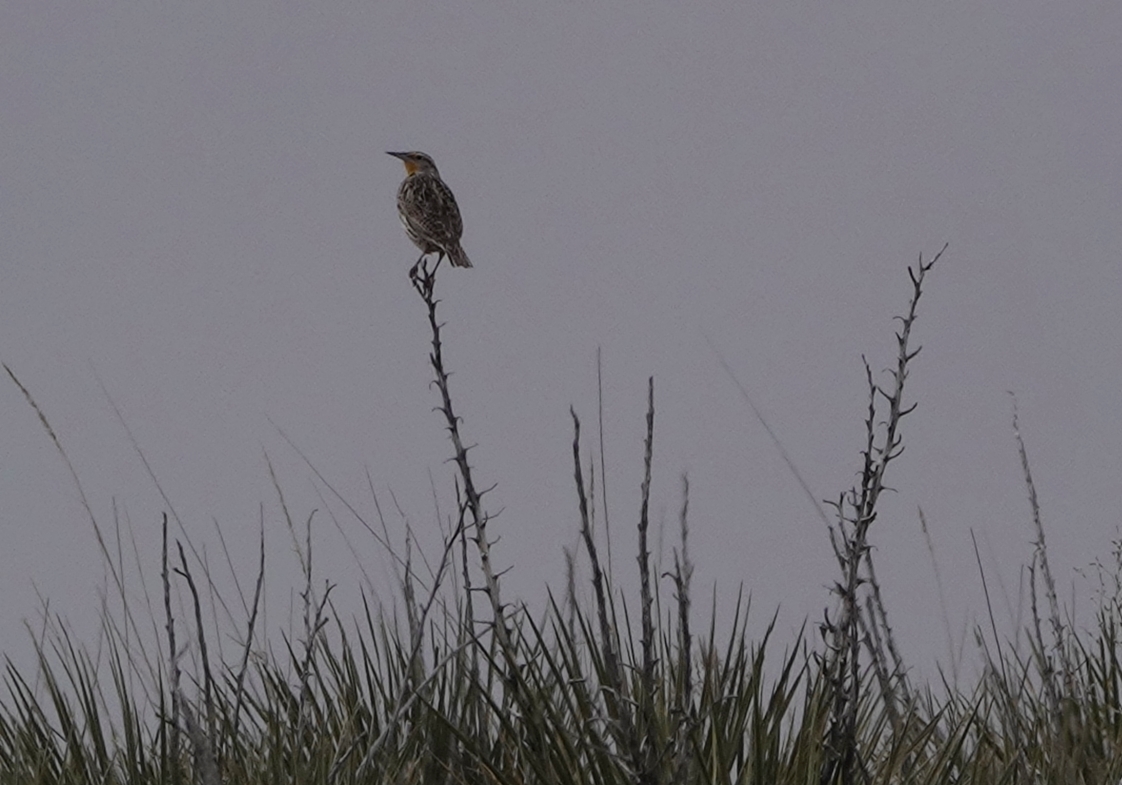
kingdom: Animalia
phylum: Chordata
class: Aves
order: Passeriformes
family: Icteridae
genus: Sturnella
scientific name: Sturnella neglecta
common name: Western meadowlark
